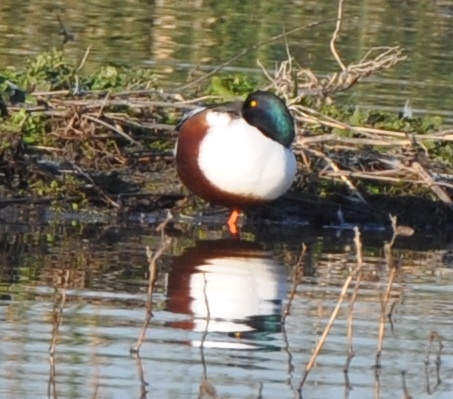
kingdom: Animalia
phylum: Chordata
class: Aves
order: Anseriformes
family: Anatidae
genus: Spatula
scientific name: Spatula clypeata
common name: Northern shoveler
